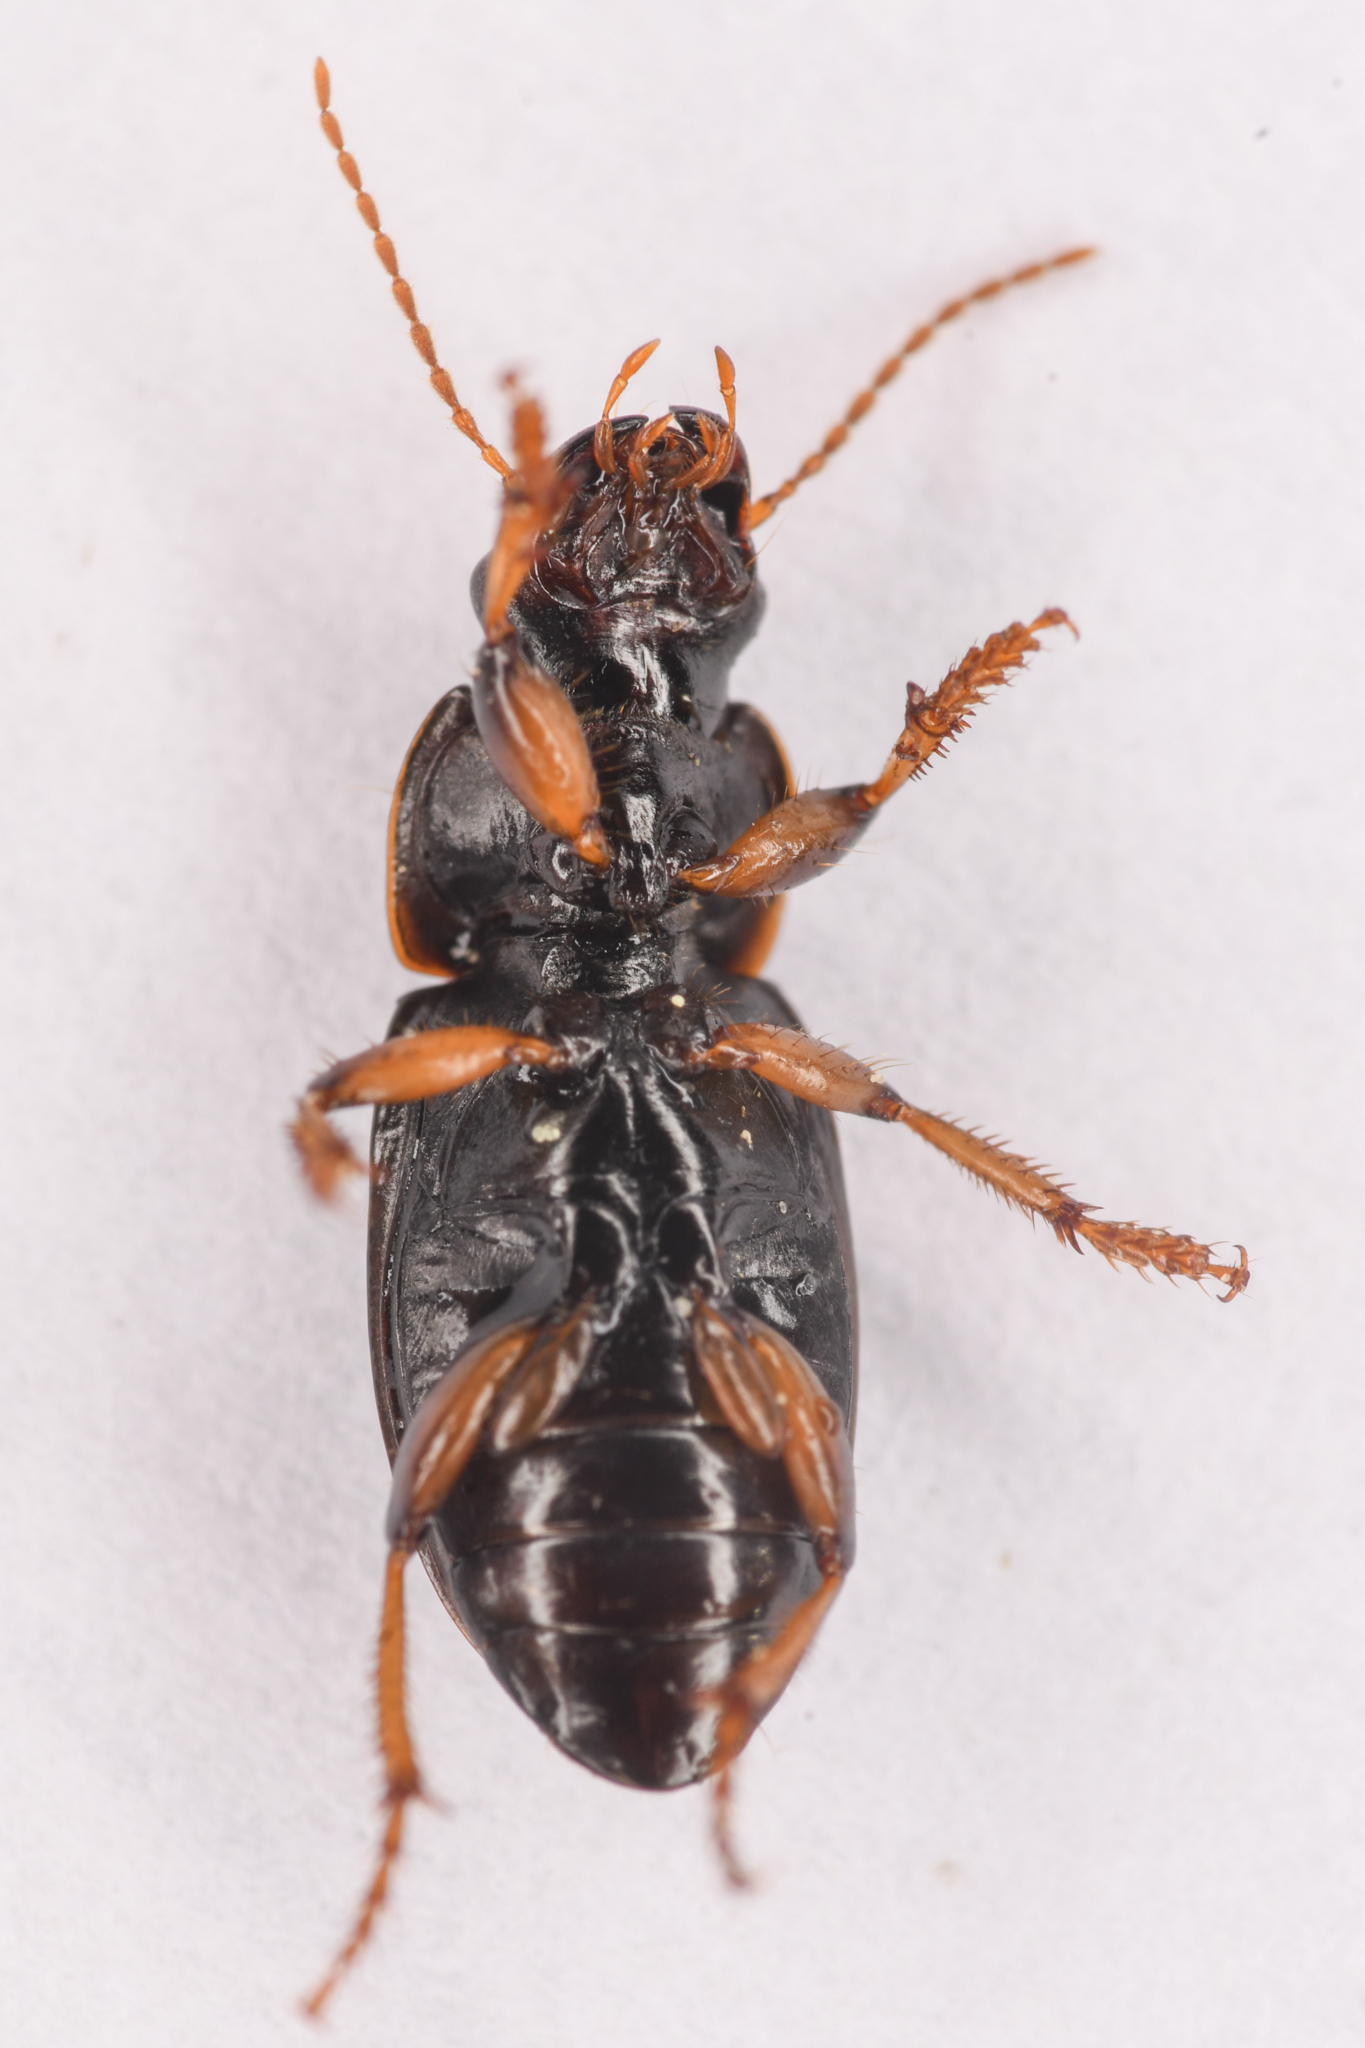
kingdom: Animalia
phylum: Arthropoda
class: Insecta
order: Coleoptera
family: Carabidae
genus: Harpalus
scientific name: Harpalus somnulentus
